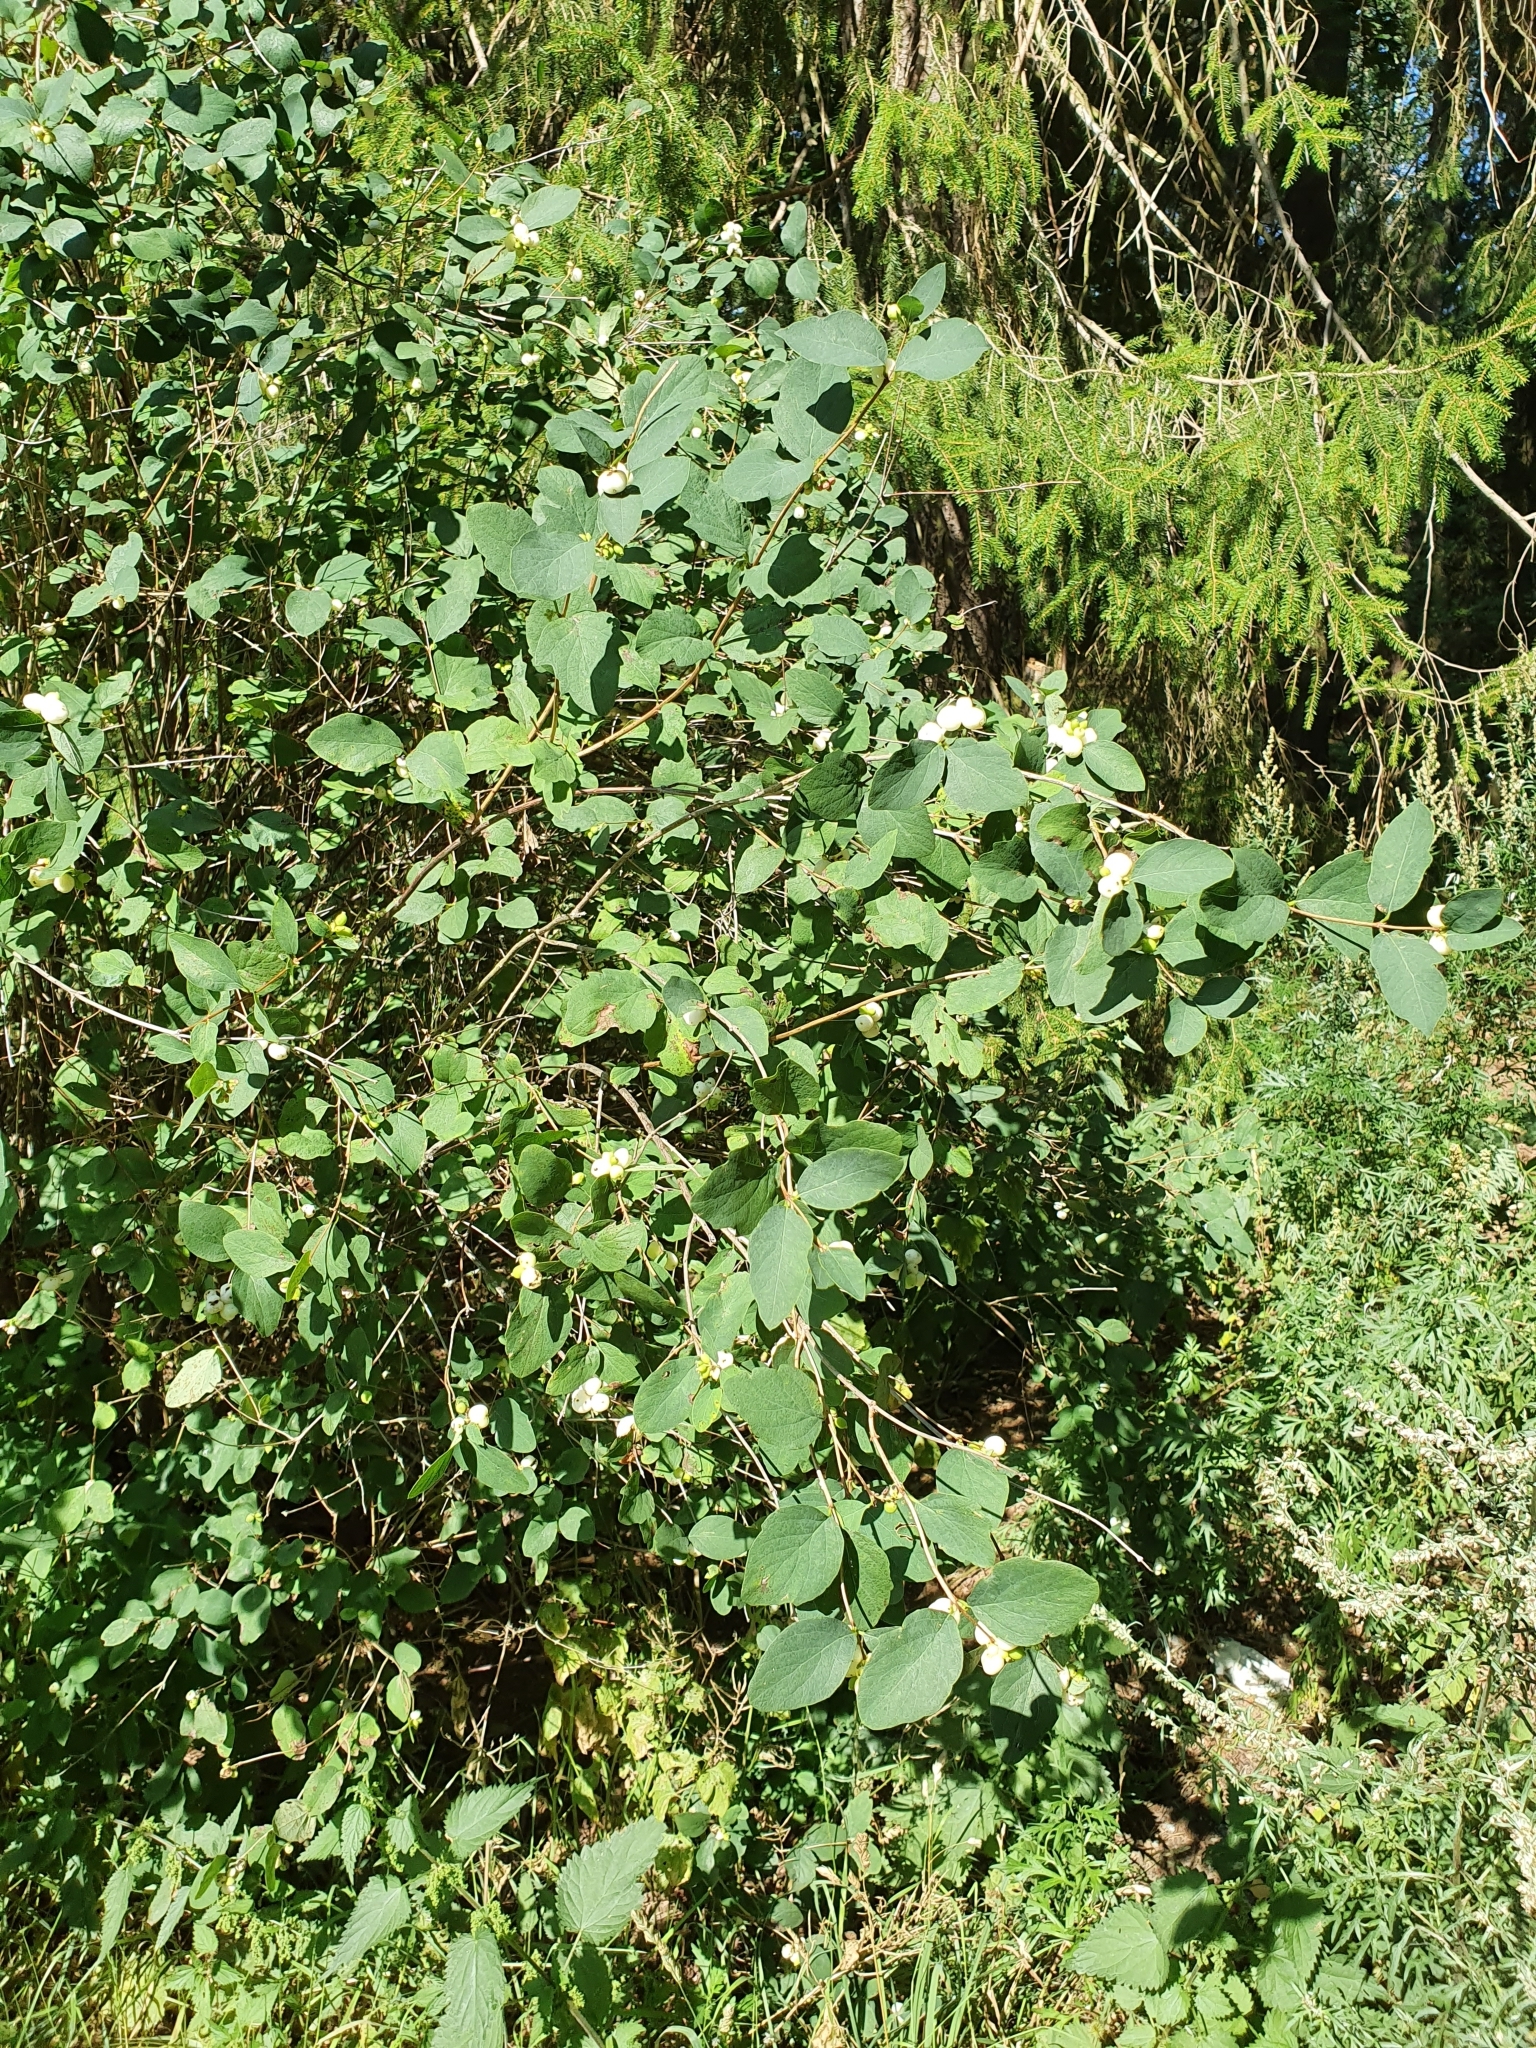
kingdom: Plantae
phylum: Tracheophyta
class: Magnoliopsida
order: Dipsacales
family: Caprifoliaceae
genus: Symphoricarpos
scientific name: Symphoricarpos albus
